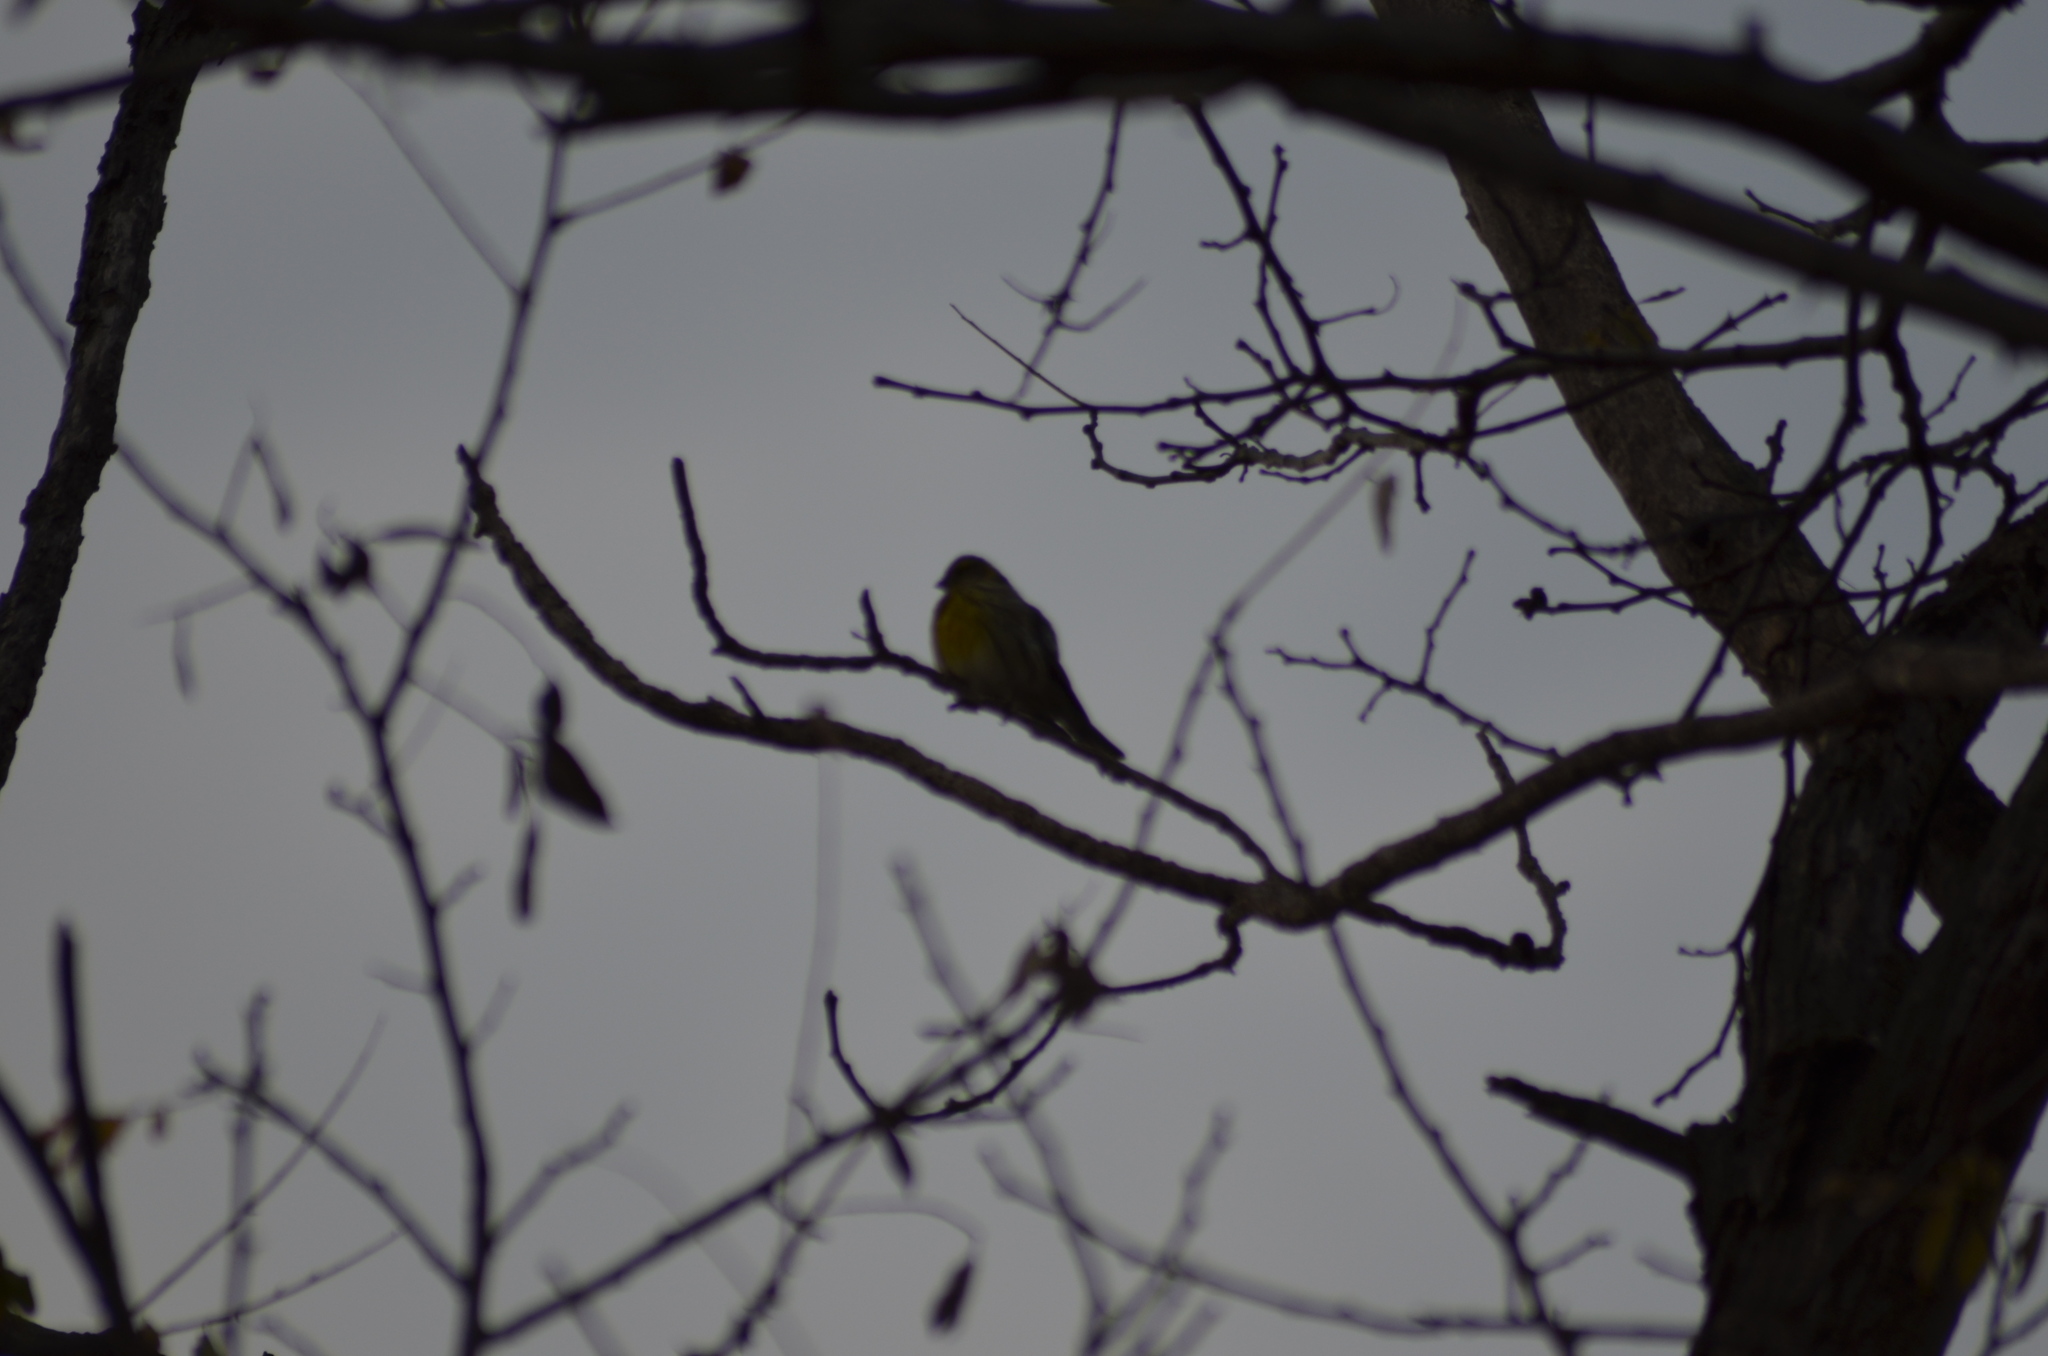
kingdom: Animalia
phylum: Chordata
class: Aves
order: Passeriformes
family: Fringillidae
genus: Serinus
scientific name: Serinus serinus
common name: European serin
